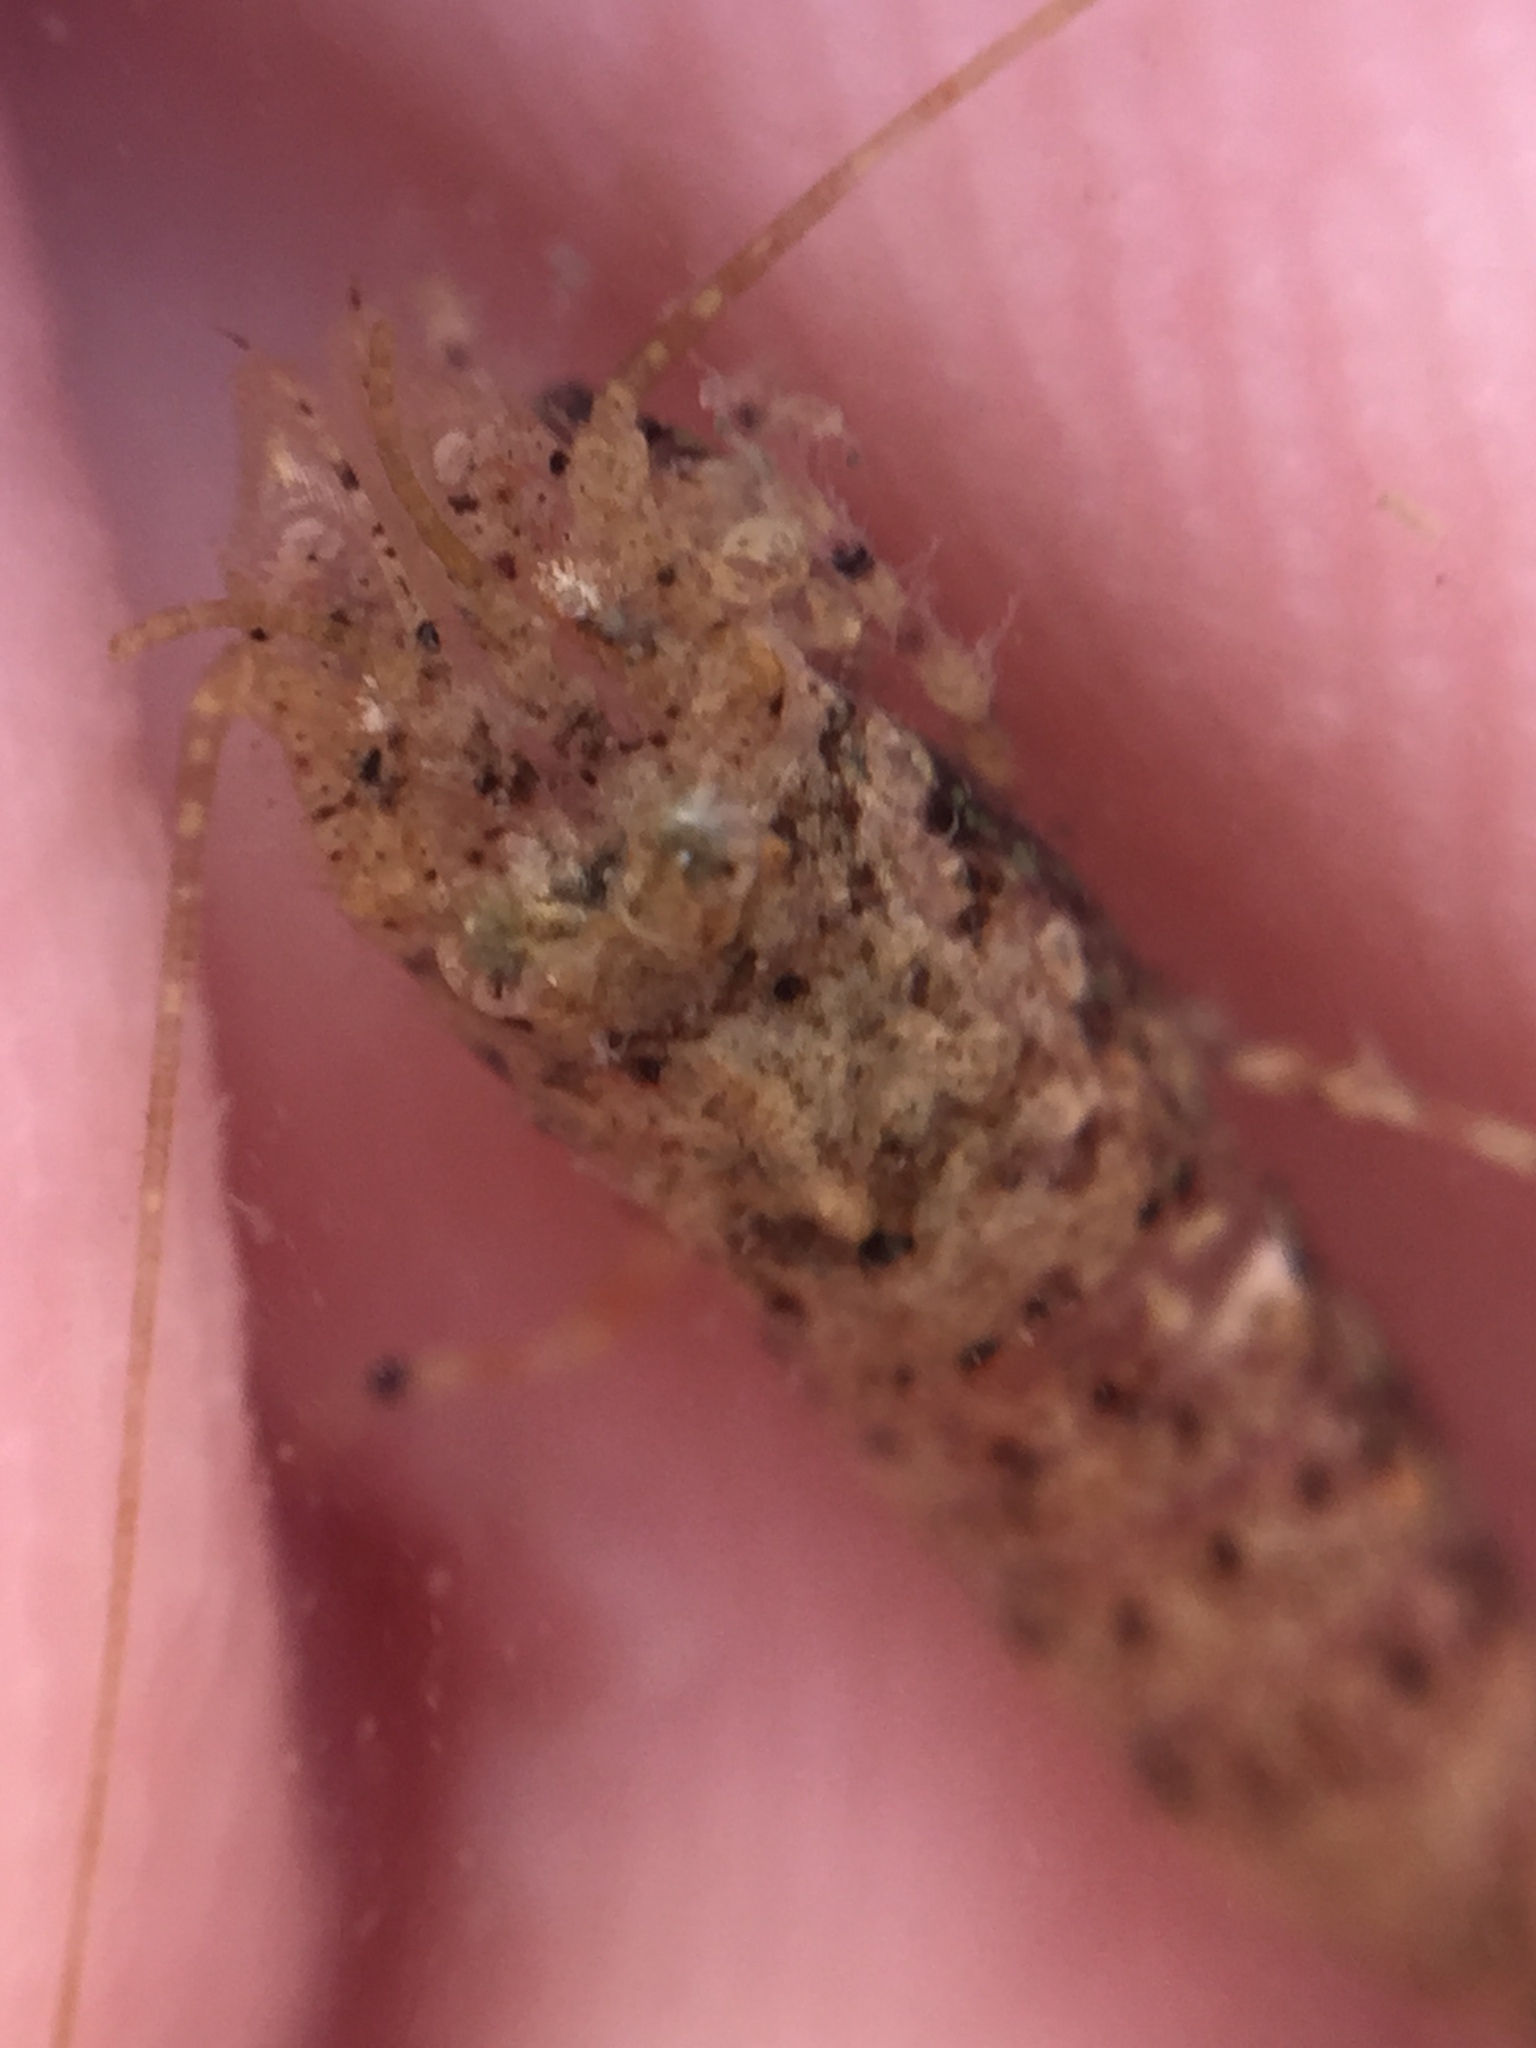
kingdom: Animalia
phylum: Arthropoda
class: Malacostraca
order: Decapoda
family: Crangonidae
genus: Philocheras
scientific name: Philocheras australis
